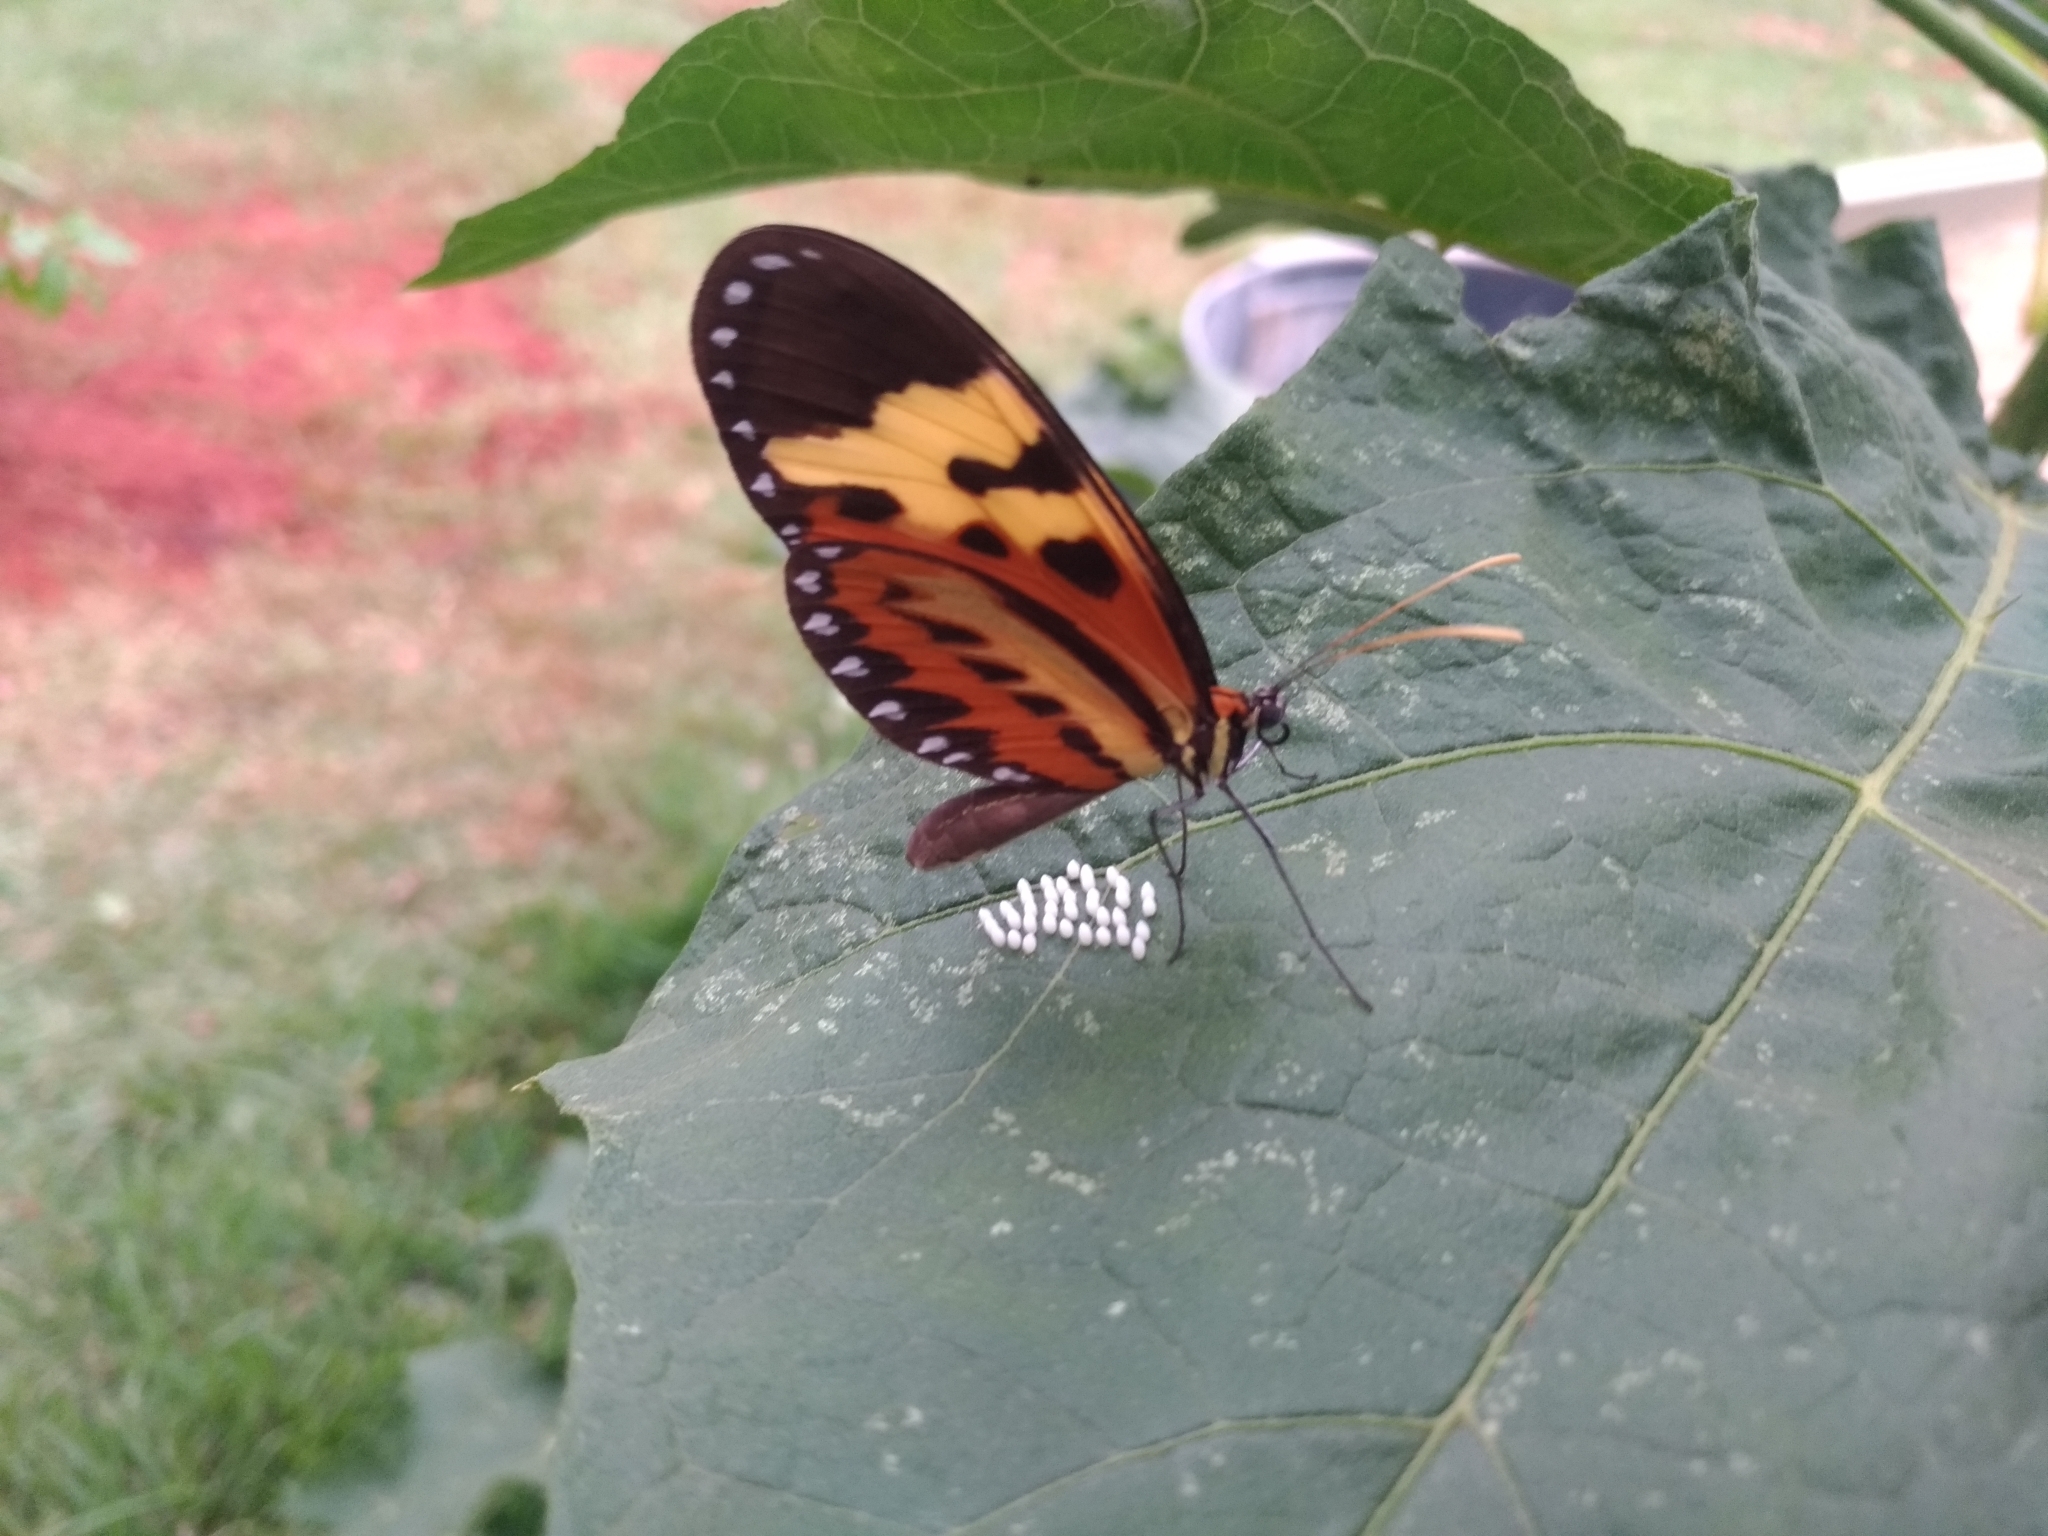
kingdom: Animalia
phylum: Arthropoda
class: Insecta
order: Lepidoptera
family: Nymphalidae
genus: Mechanitis
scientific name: Mechanitis polymnia
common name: Disturbed tigerwing
